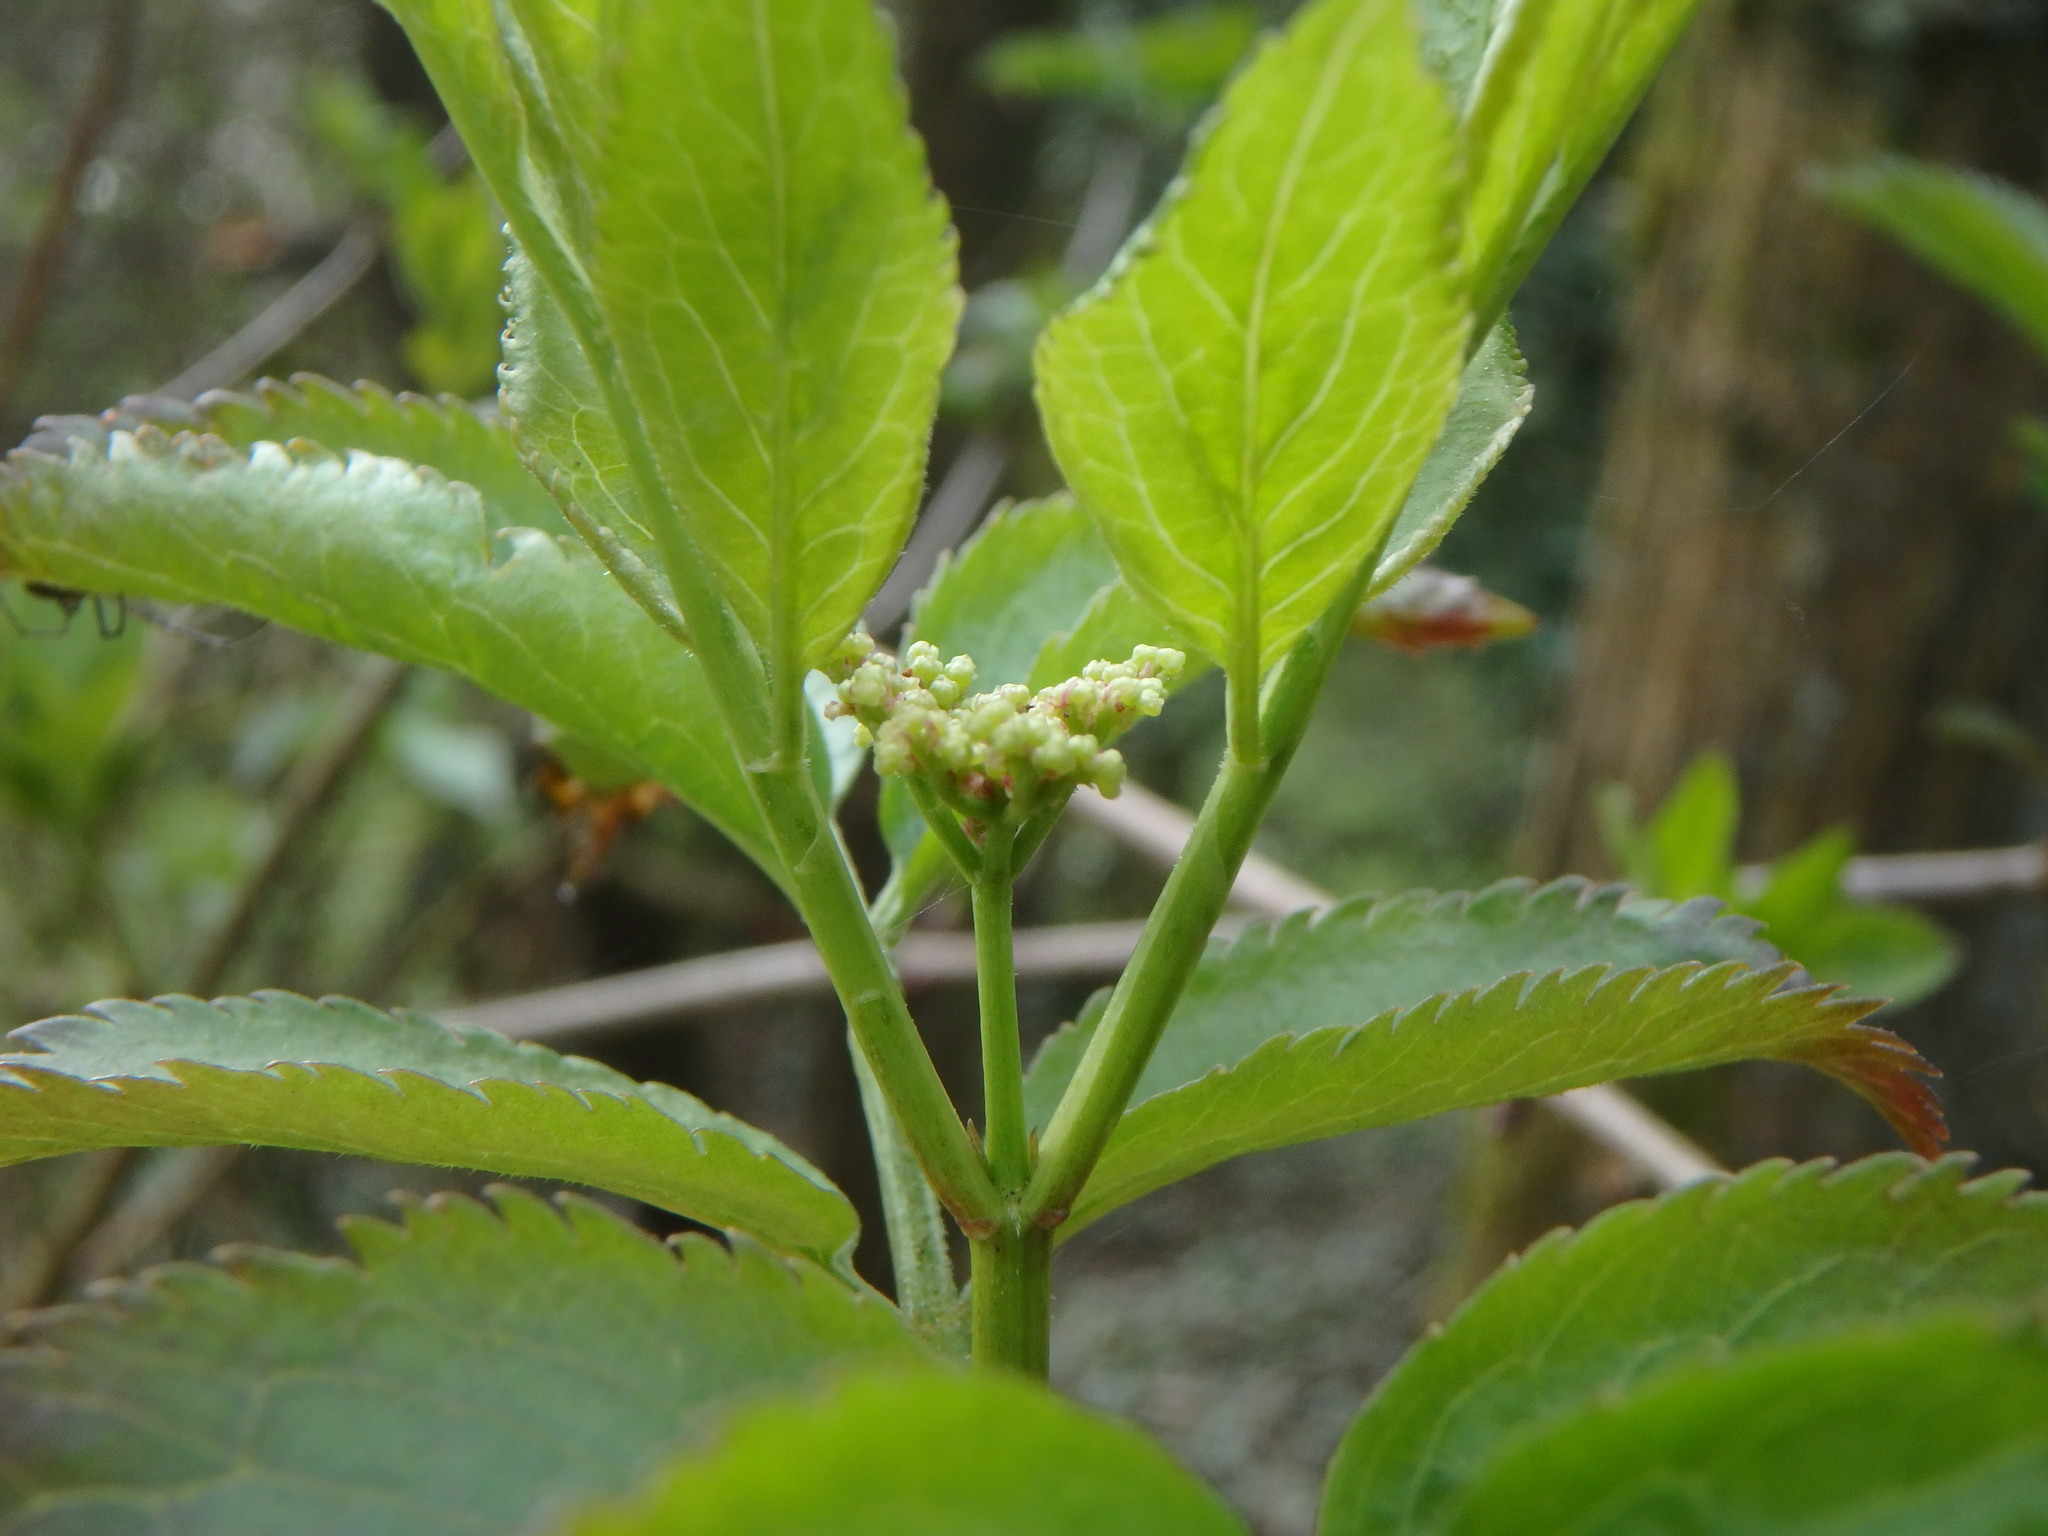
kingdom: Plantae
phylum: Tracheophyta
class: Magnoliopsida
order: Dipsacales
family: Viburnaceae
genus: Sambucus
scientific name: Sambucus nigra
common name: Elder
